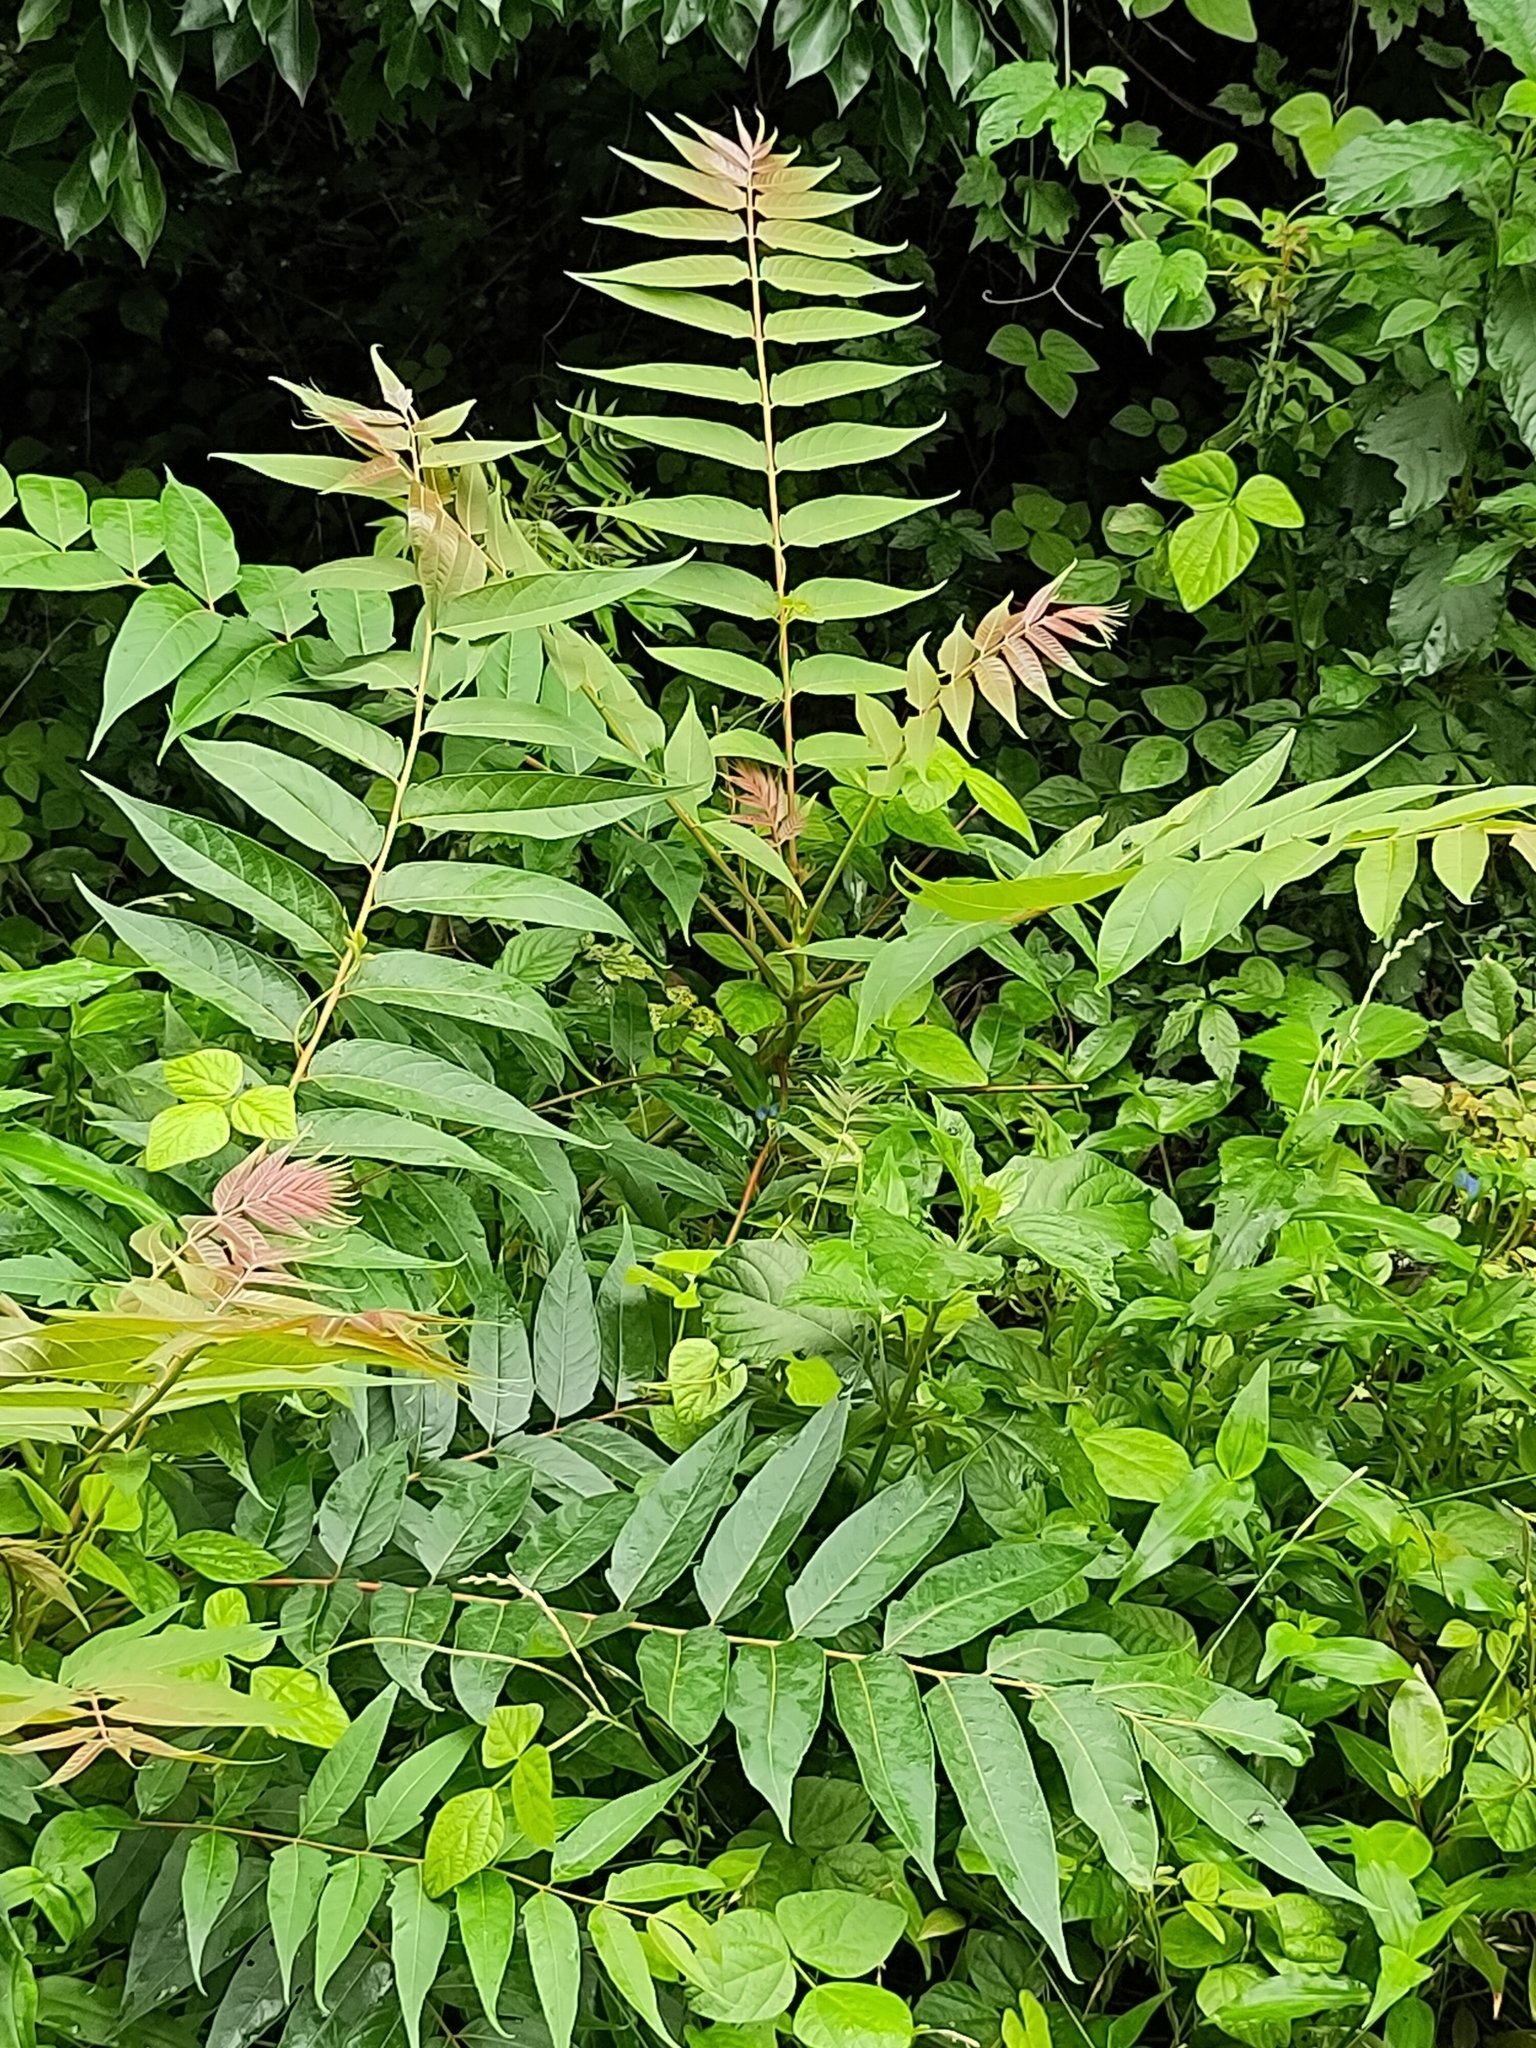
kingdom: Plantae
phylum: Tracheophyta
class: Magnoliopsida
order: Sapindales
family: Simaroubaceae
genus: Ailanthus
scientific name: Ailanthus altissima
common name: Tree-of-heaven
